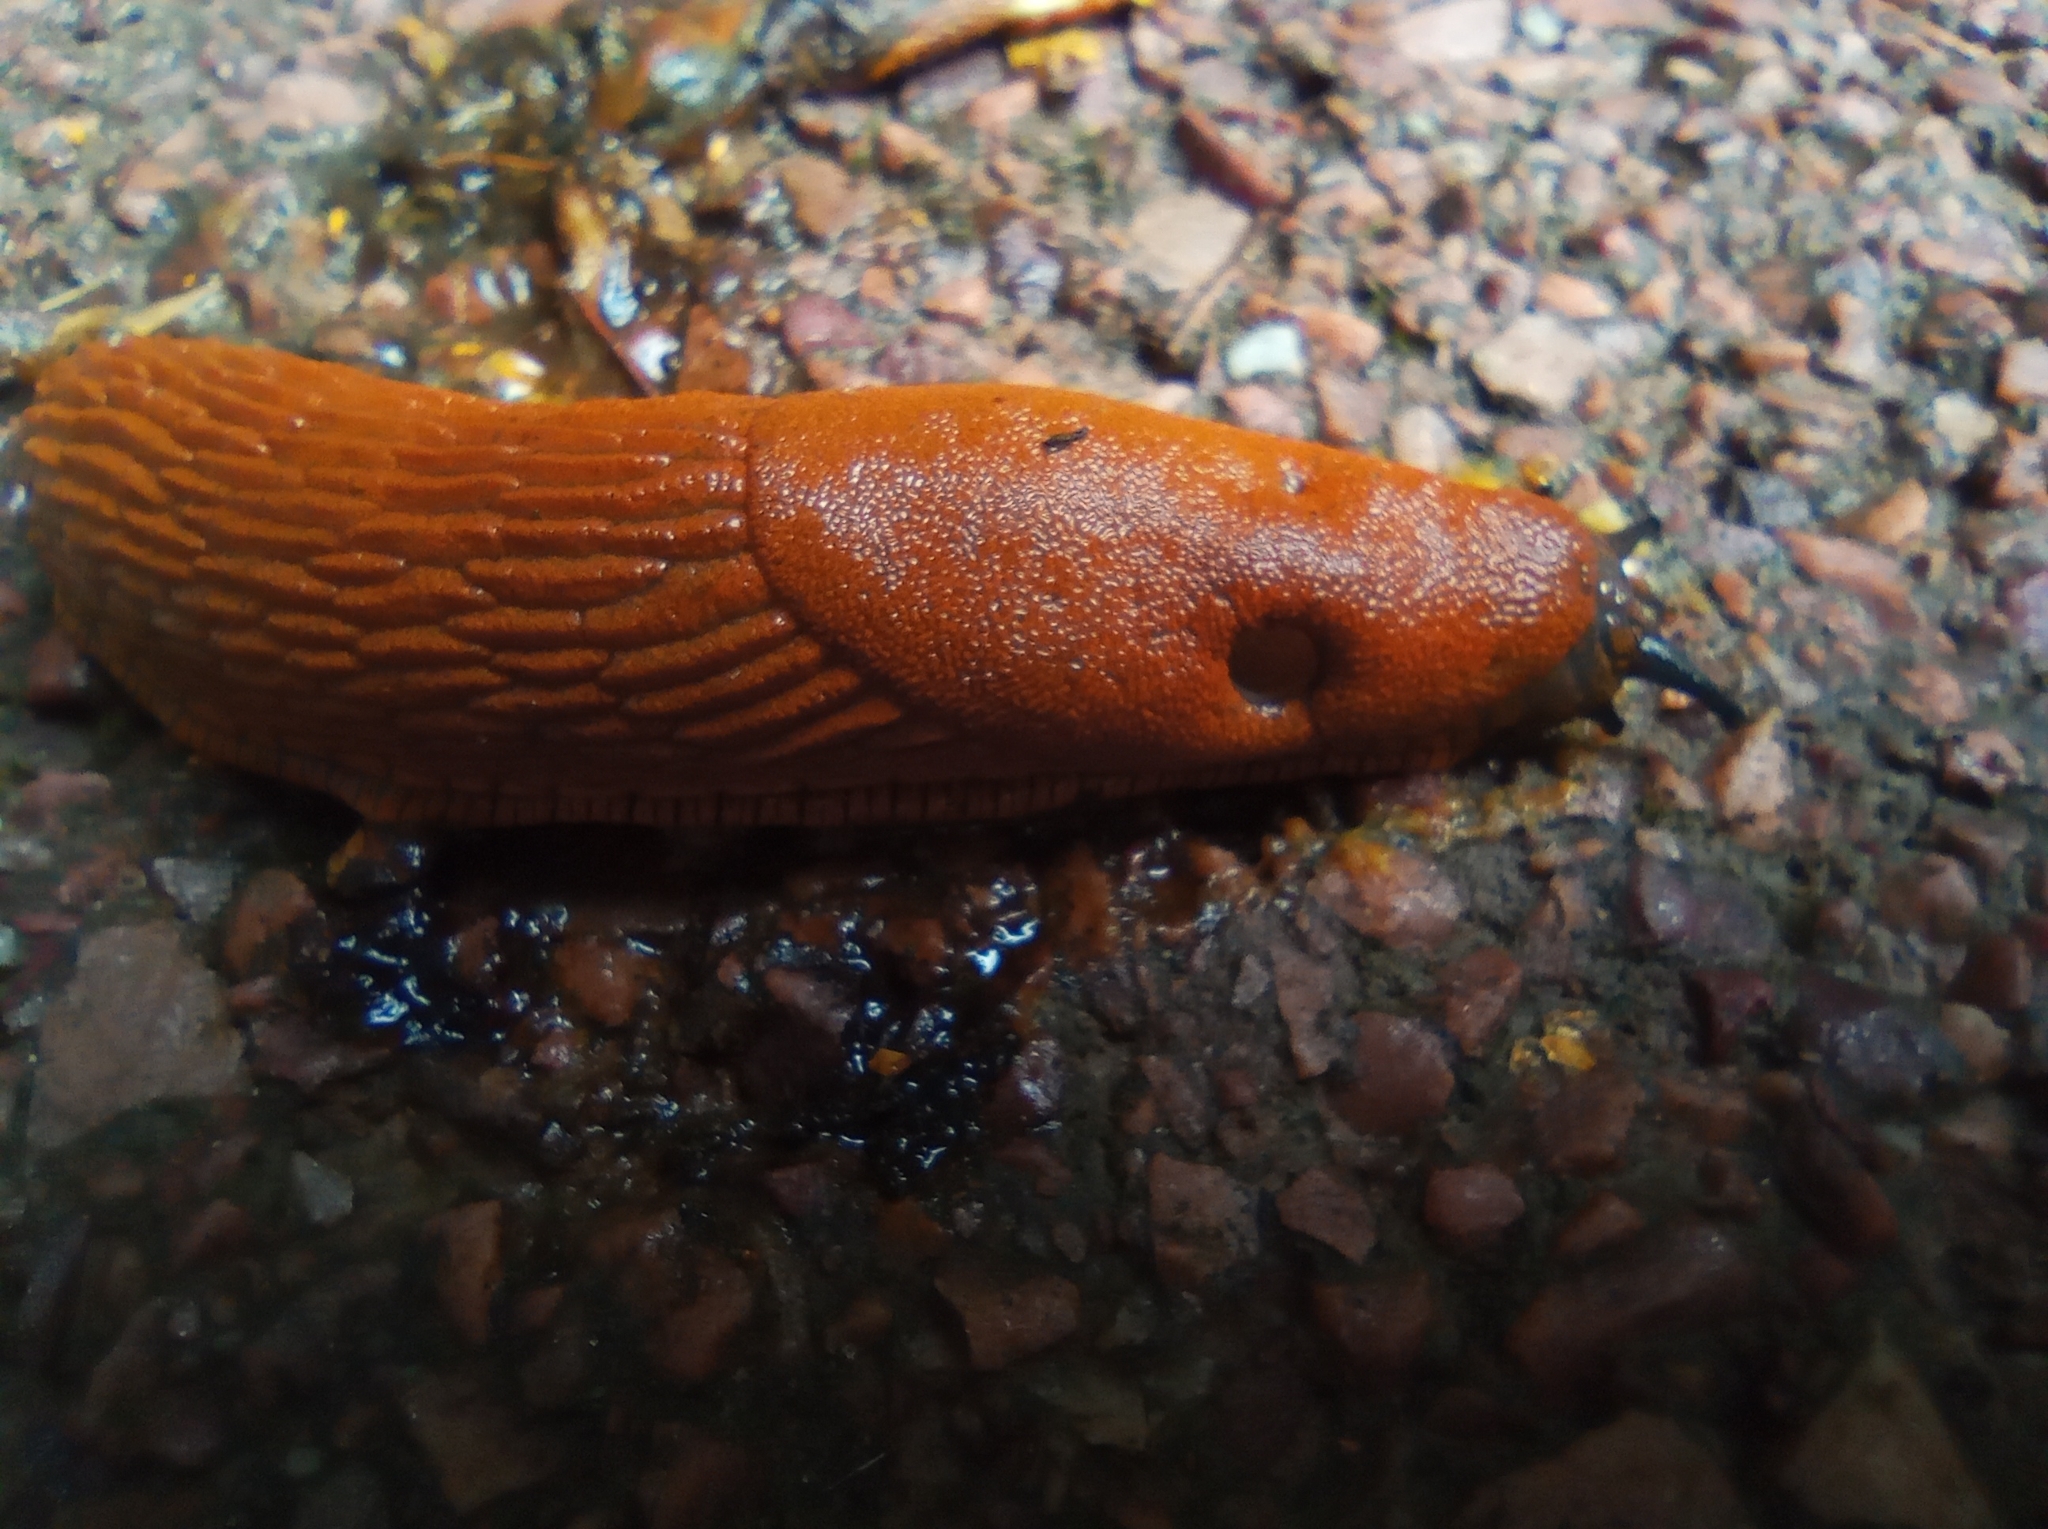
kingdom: Animalia
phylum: Mollusca
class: Gastropoda
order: Stylommatophora
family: Arionidae
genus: Arion
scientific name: Arion vulgaris
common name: Lusitanian slug
